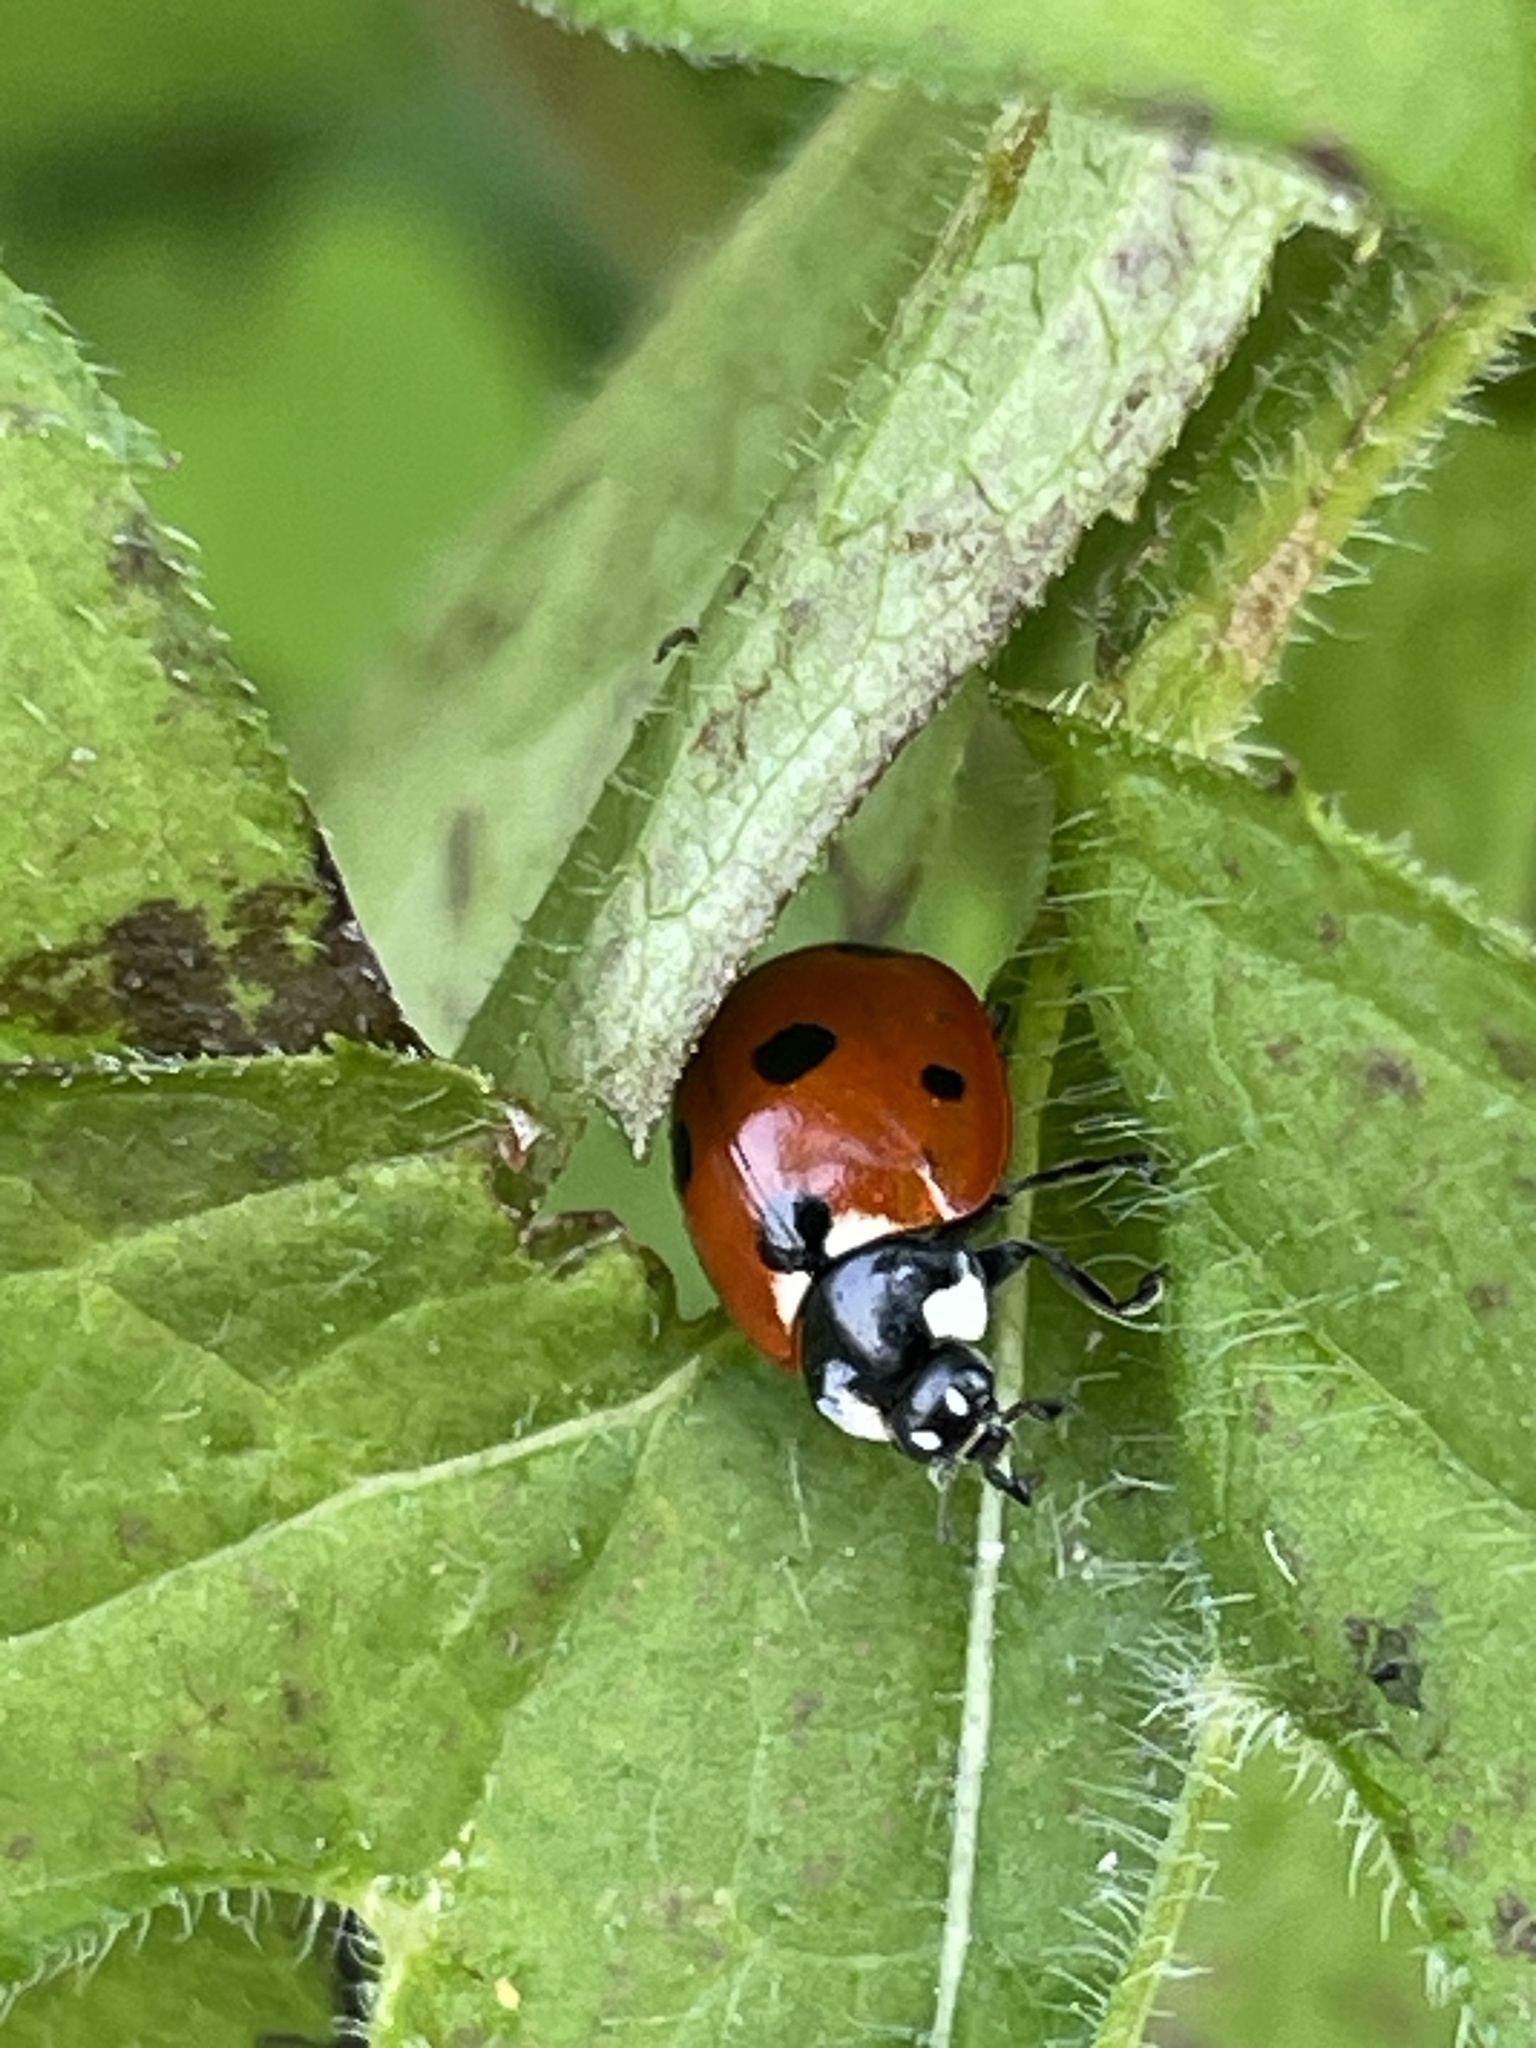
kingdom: Animalia
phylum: Arthropoda
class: Insecta
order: Coleoptera
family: Coccinellidae
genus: Coccinella
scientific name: Coccinella septempunctata
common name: Sevenspotted lady beetle
